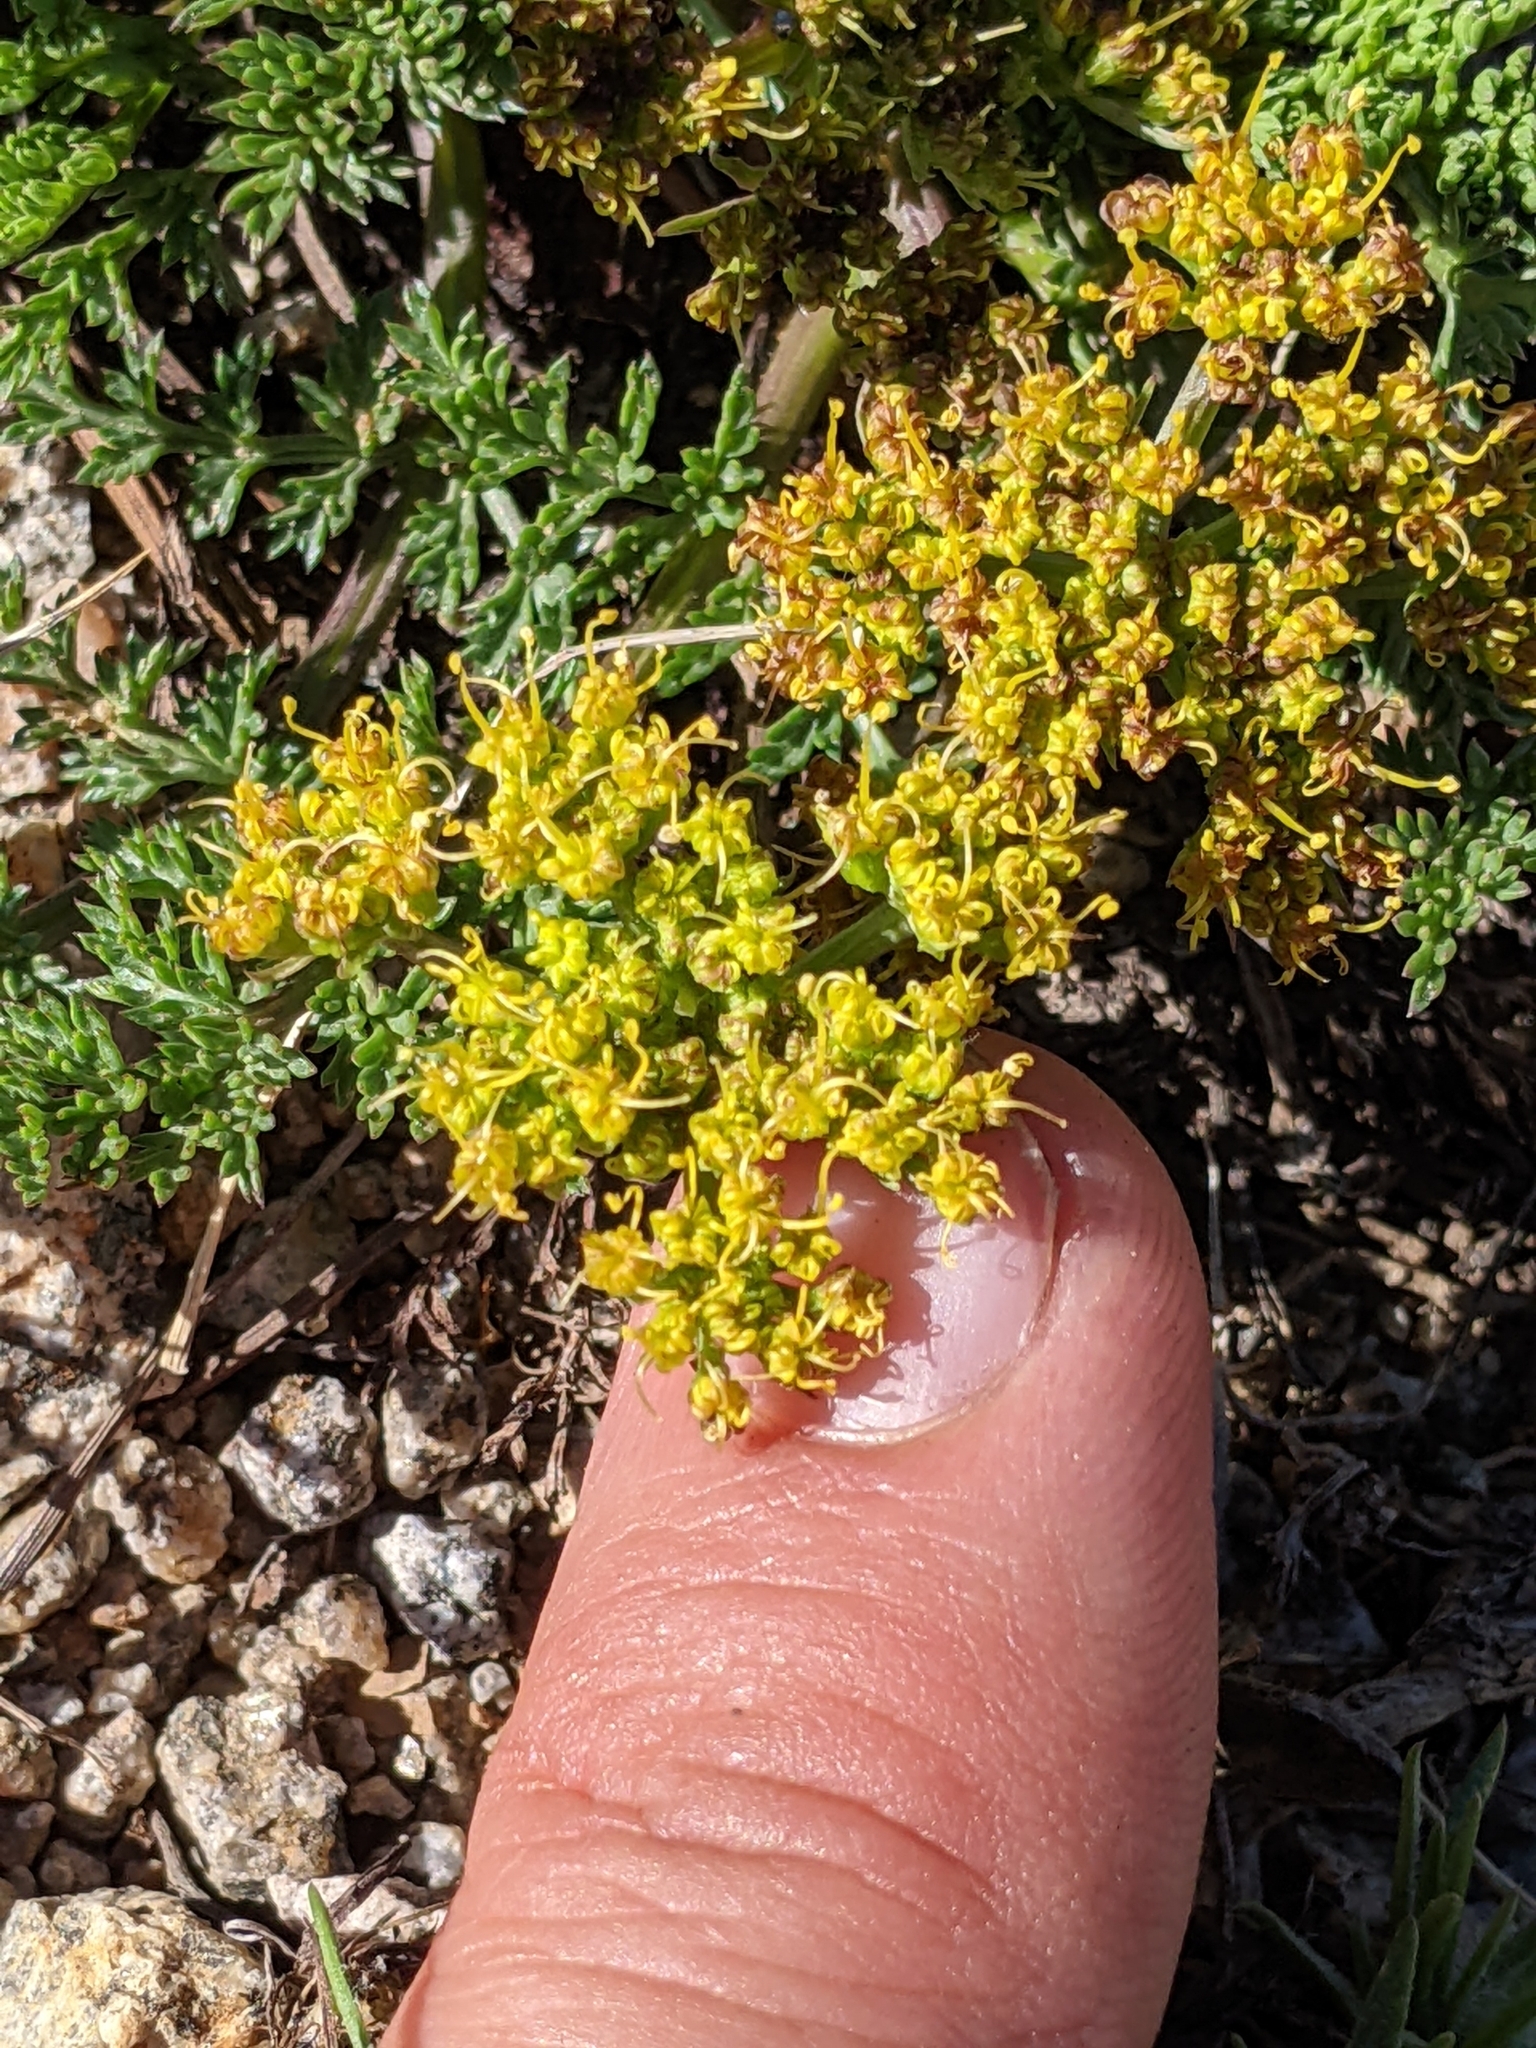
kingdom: Plantae
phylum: Tracheophyta
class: Magnoliopsida
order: Apiales
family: Apiaceae
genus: Pteryxia
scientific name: Pteryxia terebinthina
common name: Turpentine wavewing
